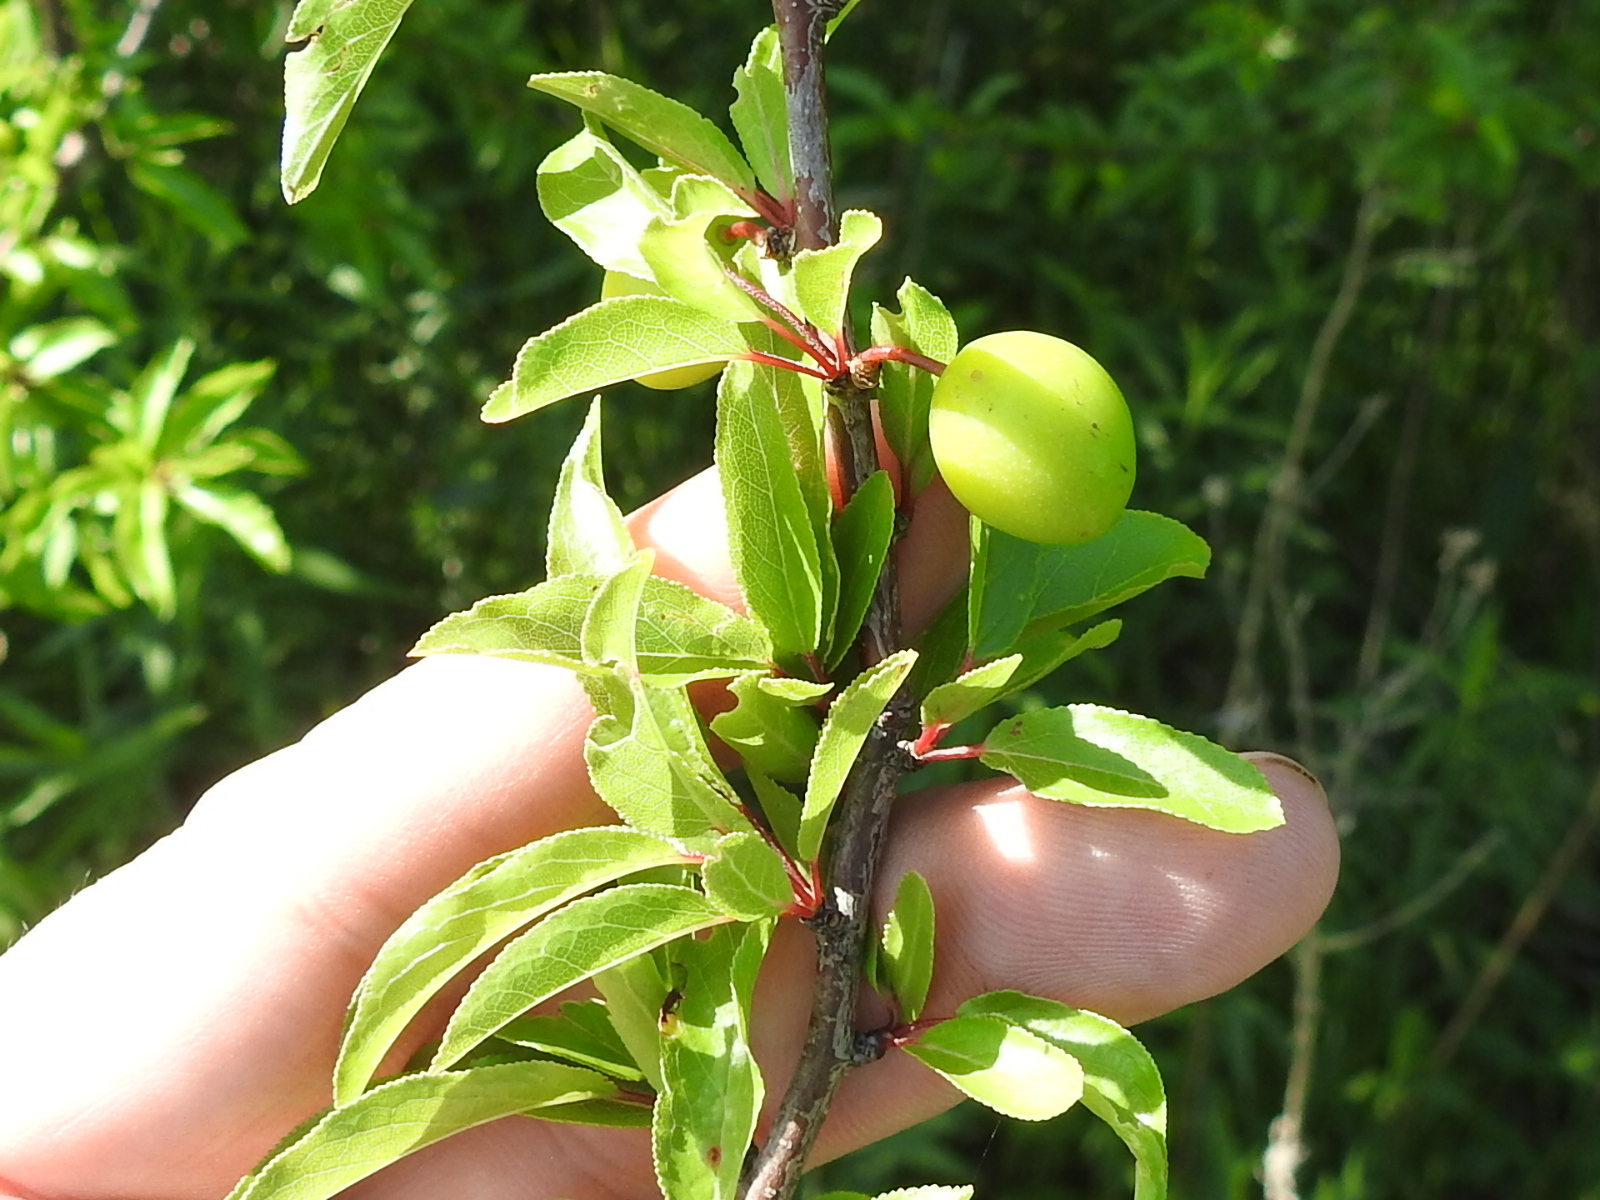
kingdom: Plantae
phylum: Tracheophyta
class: Magnoliopsida
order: Rosales
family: Rosaceae
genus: Prunus
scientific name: Prunus angustifolia
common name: Cherokee plum
